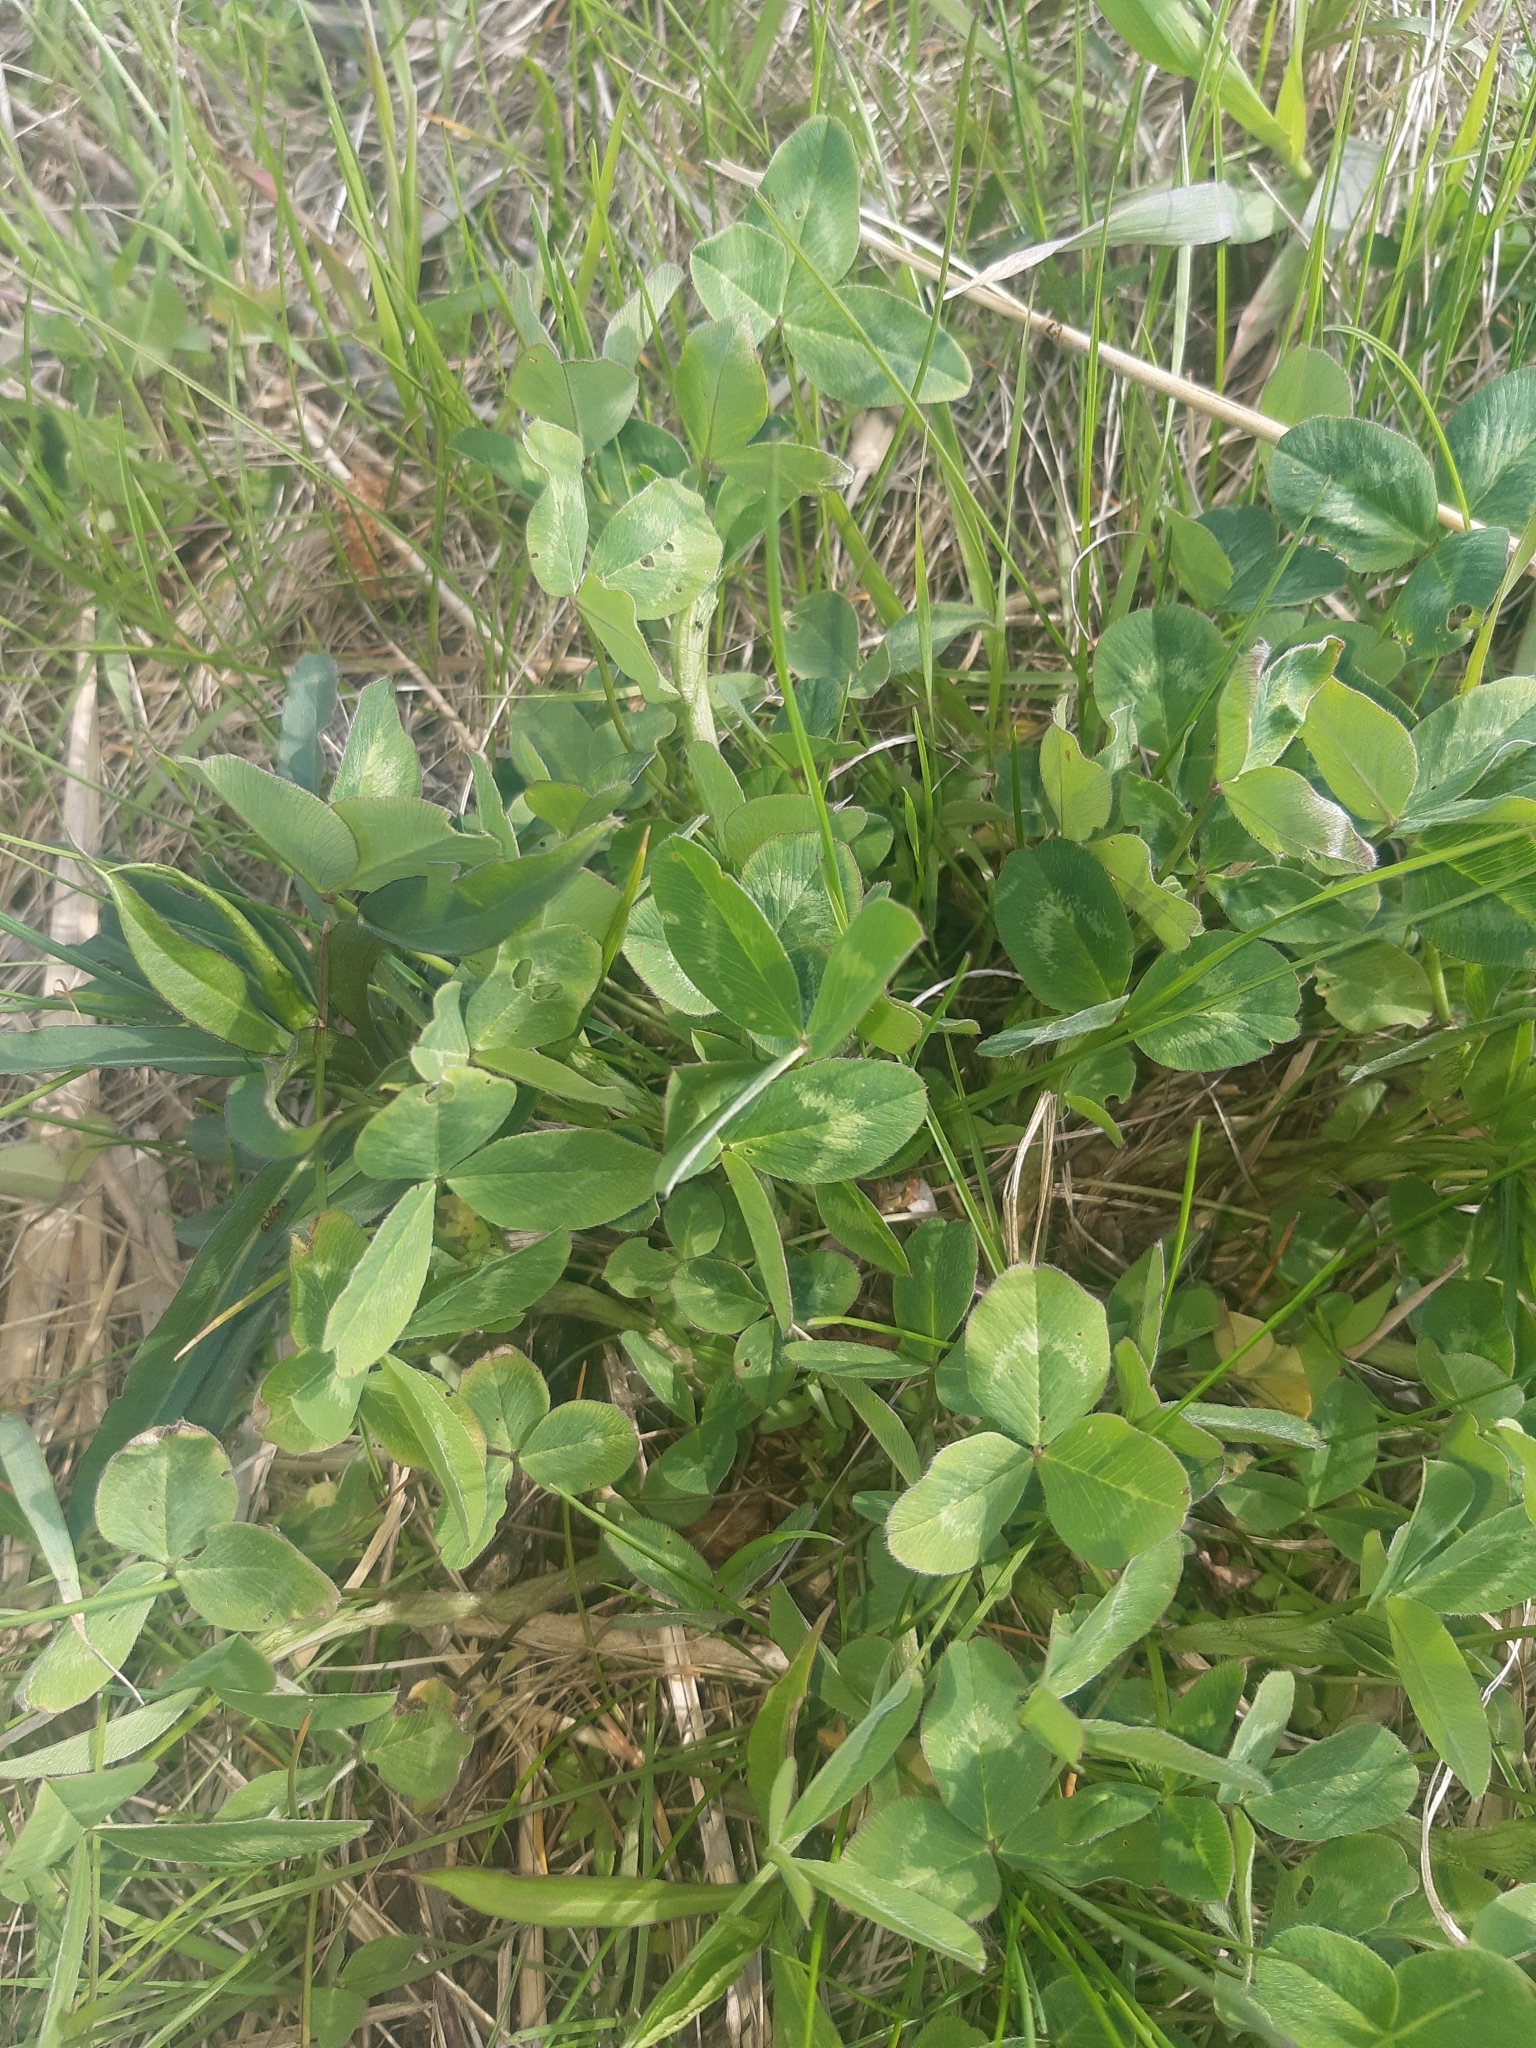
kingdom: Plantae
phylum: Tracheophyta
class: Magnoliopsida
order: Fabales
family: Fabaceae
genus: Trifolium
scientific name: Trifolium pratense
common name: Red clover
